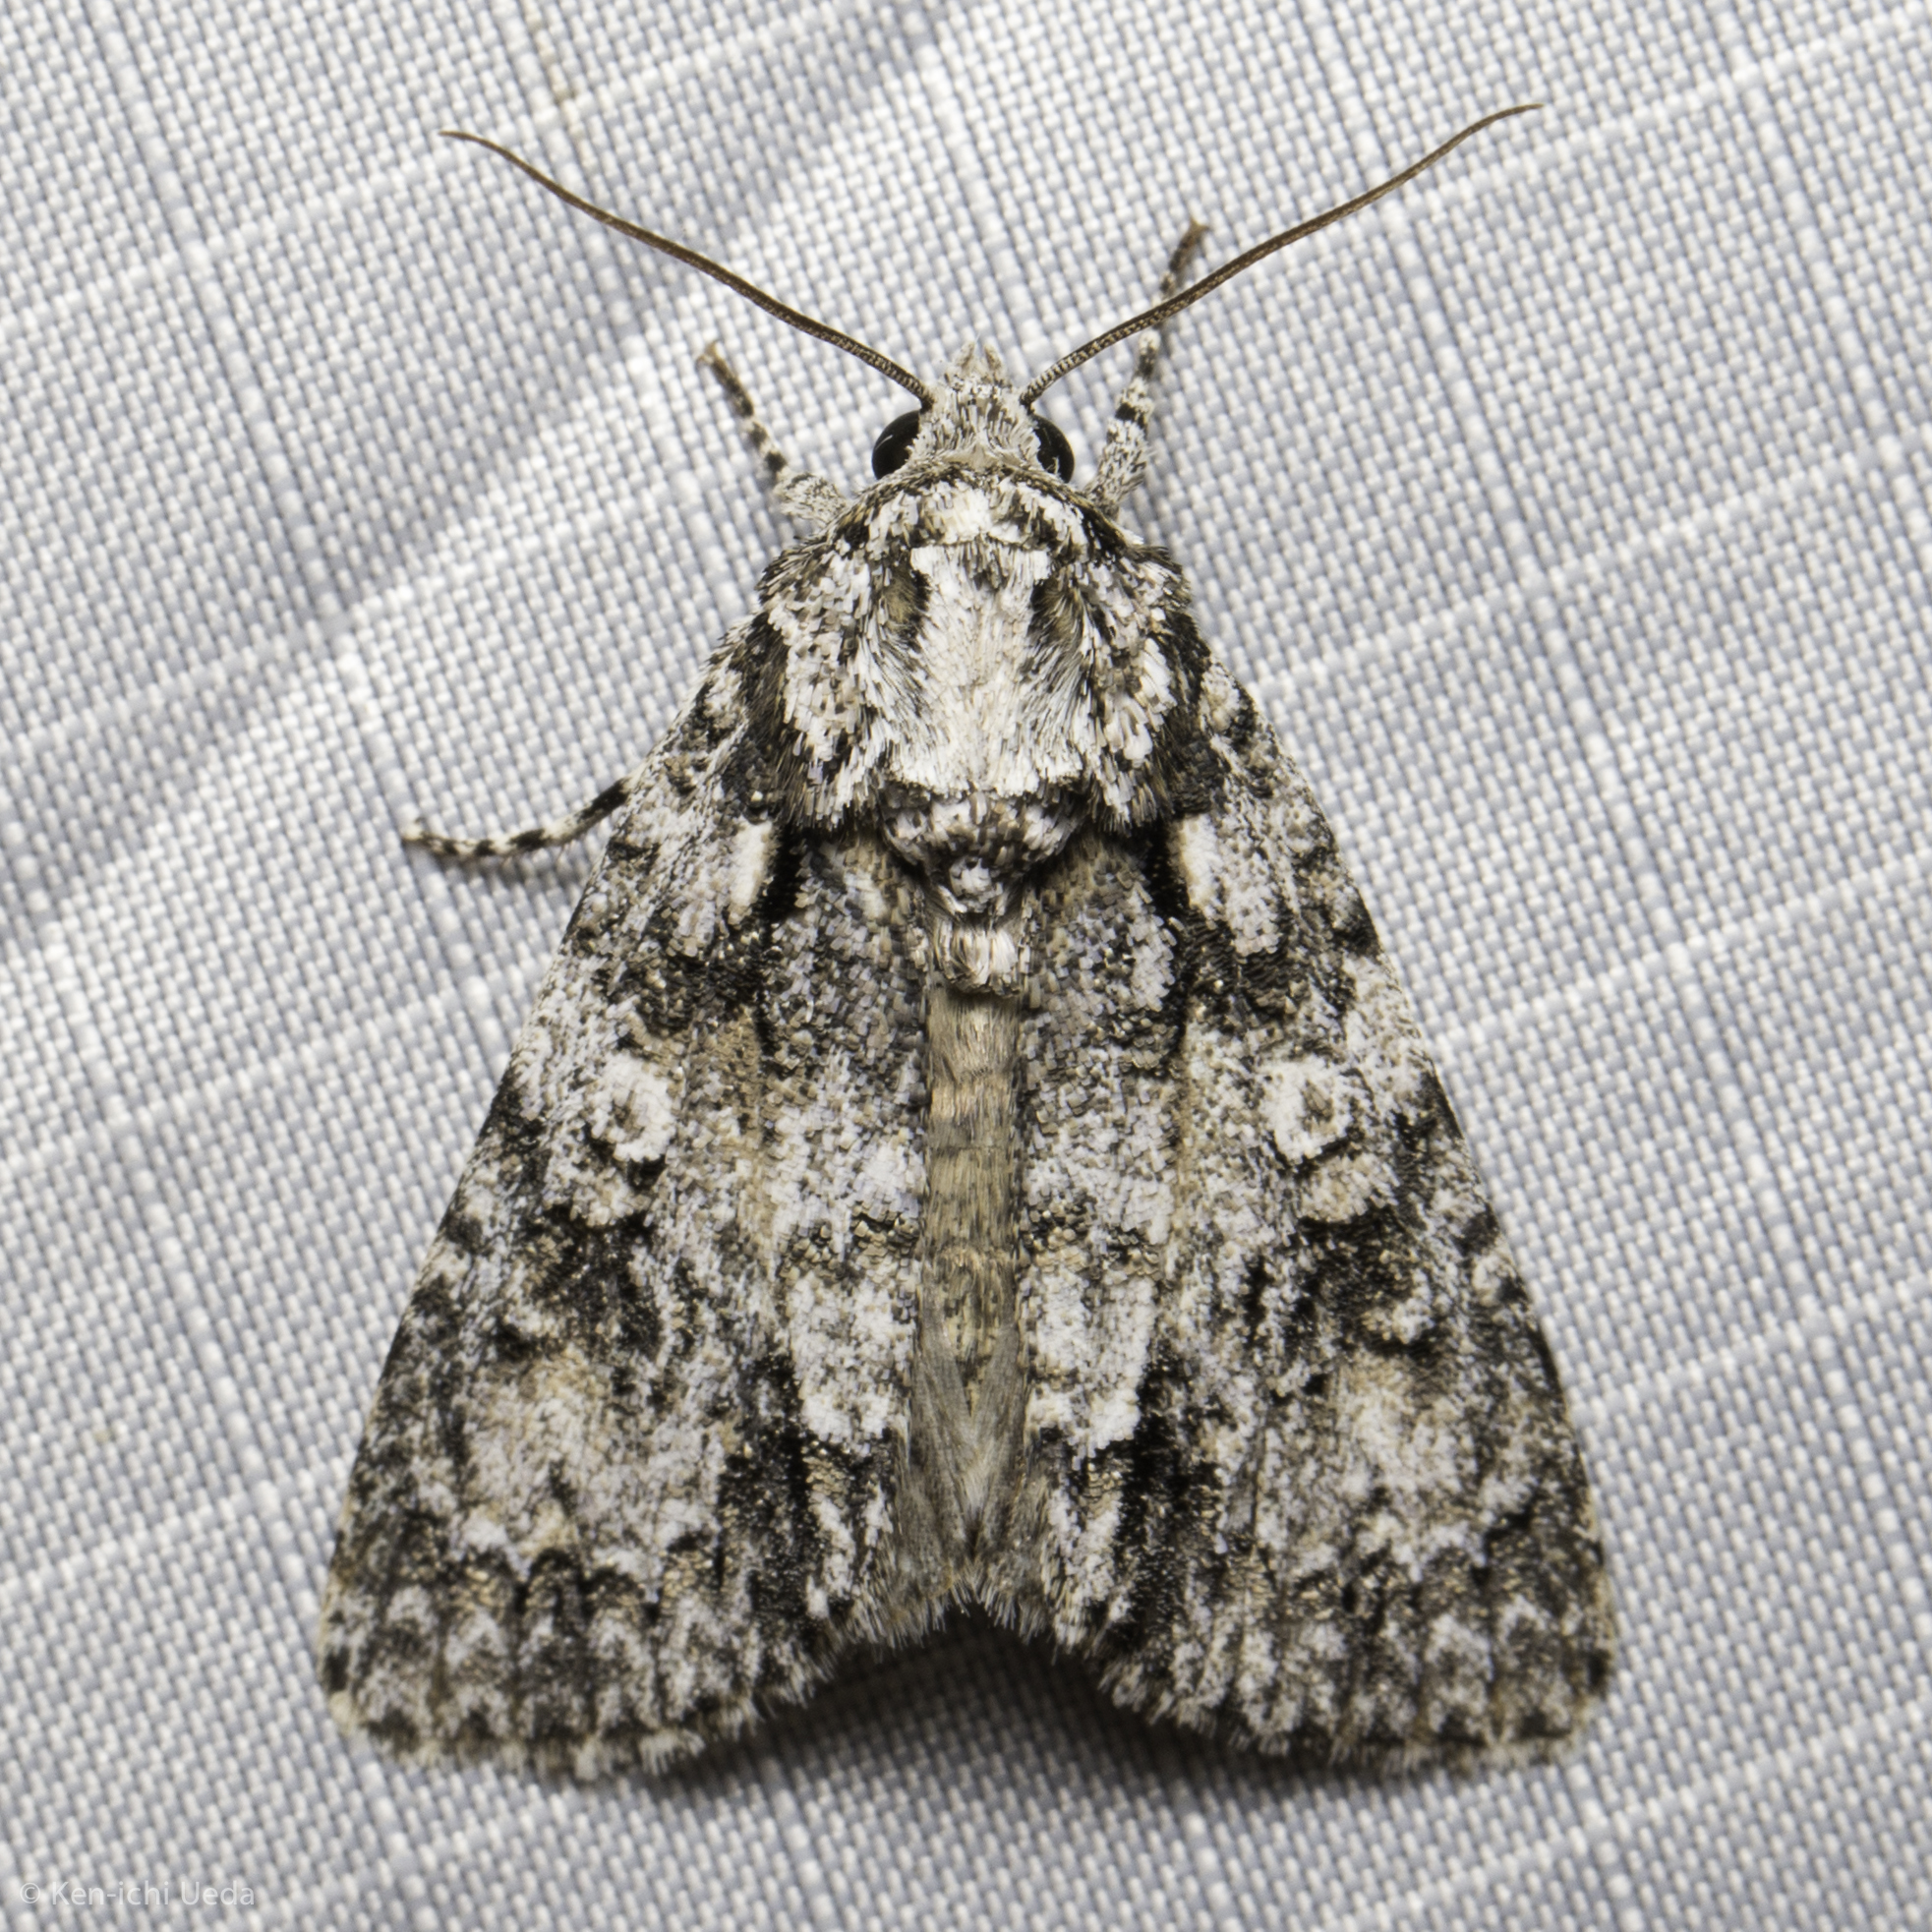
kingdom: Animalia
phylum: Arthropoda
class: Insecta
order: Lepidoptera
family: Noctuidae
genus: Acronicta
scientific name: Acronicta marmorata
